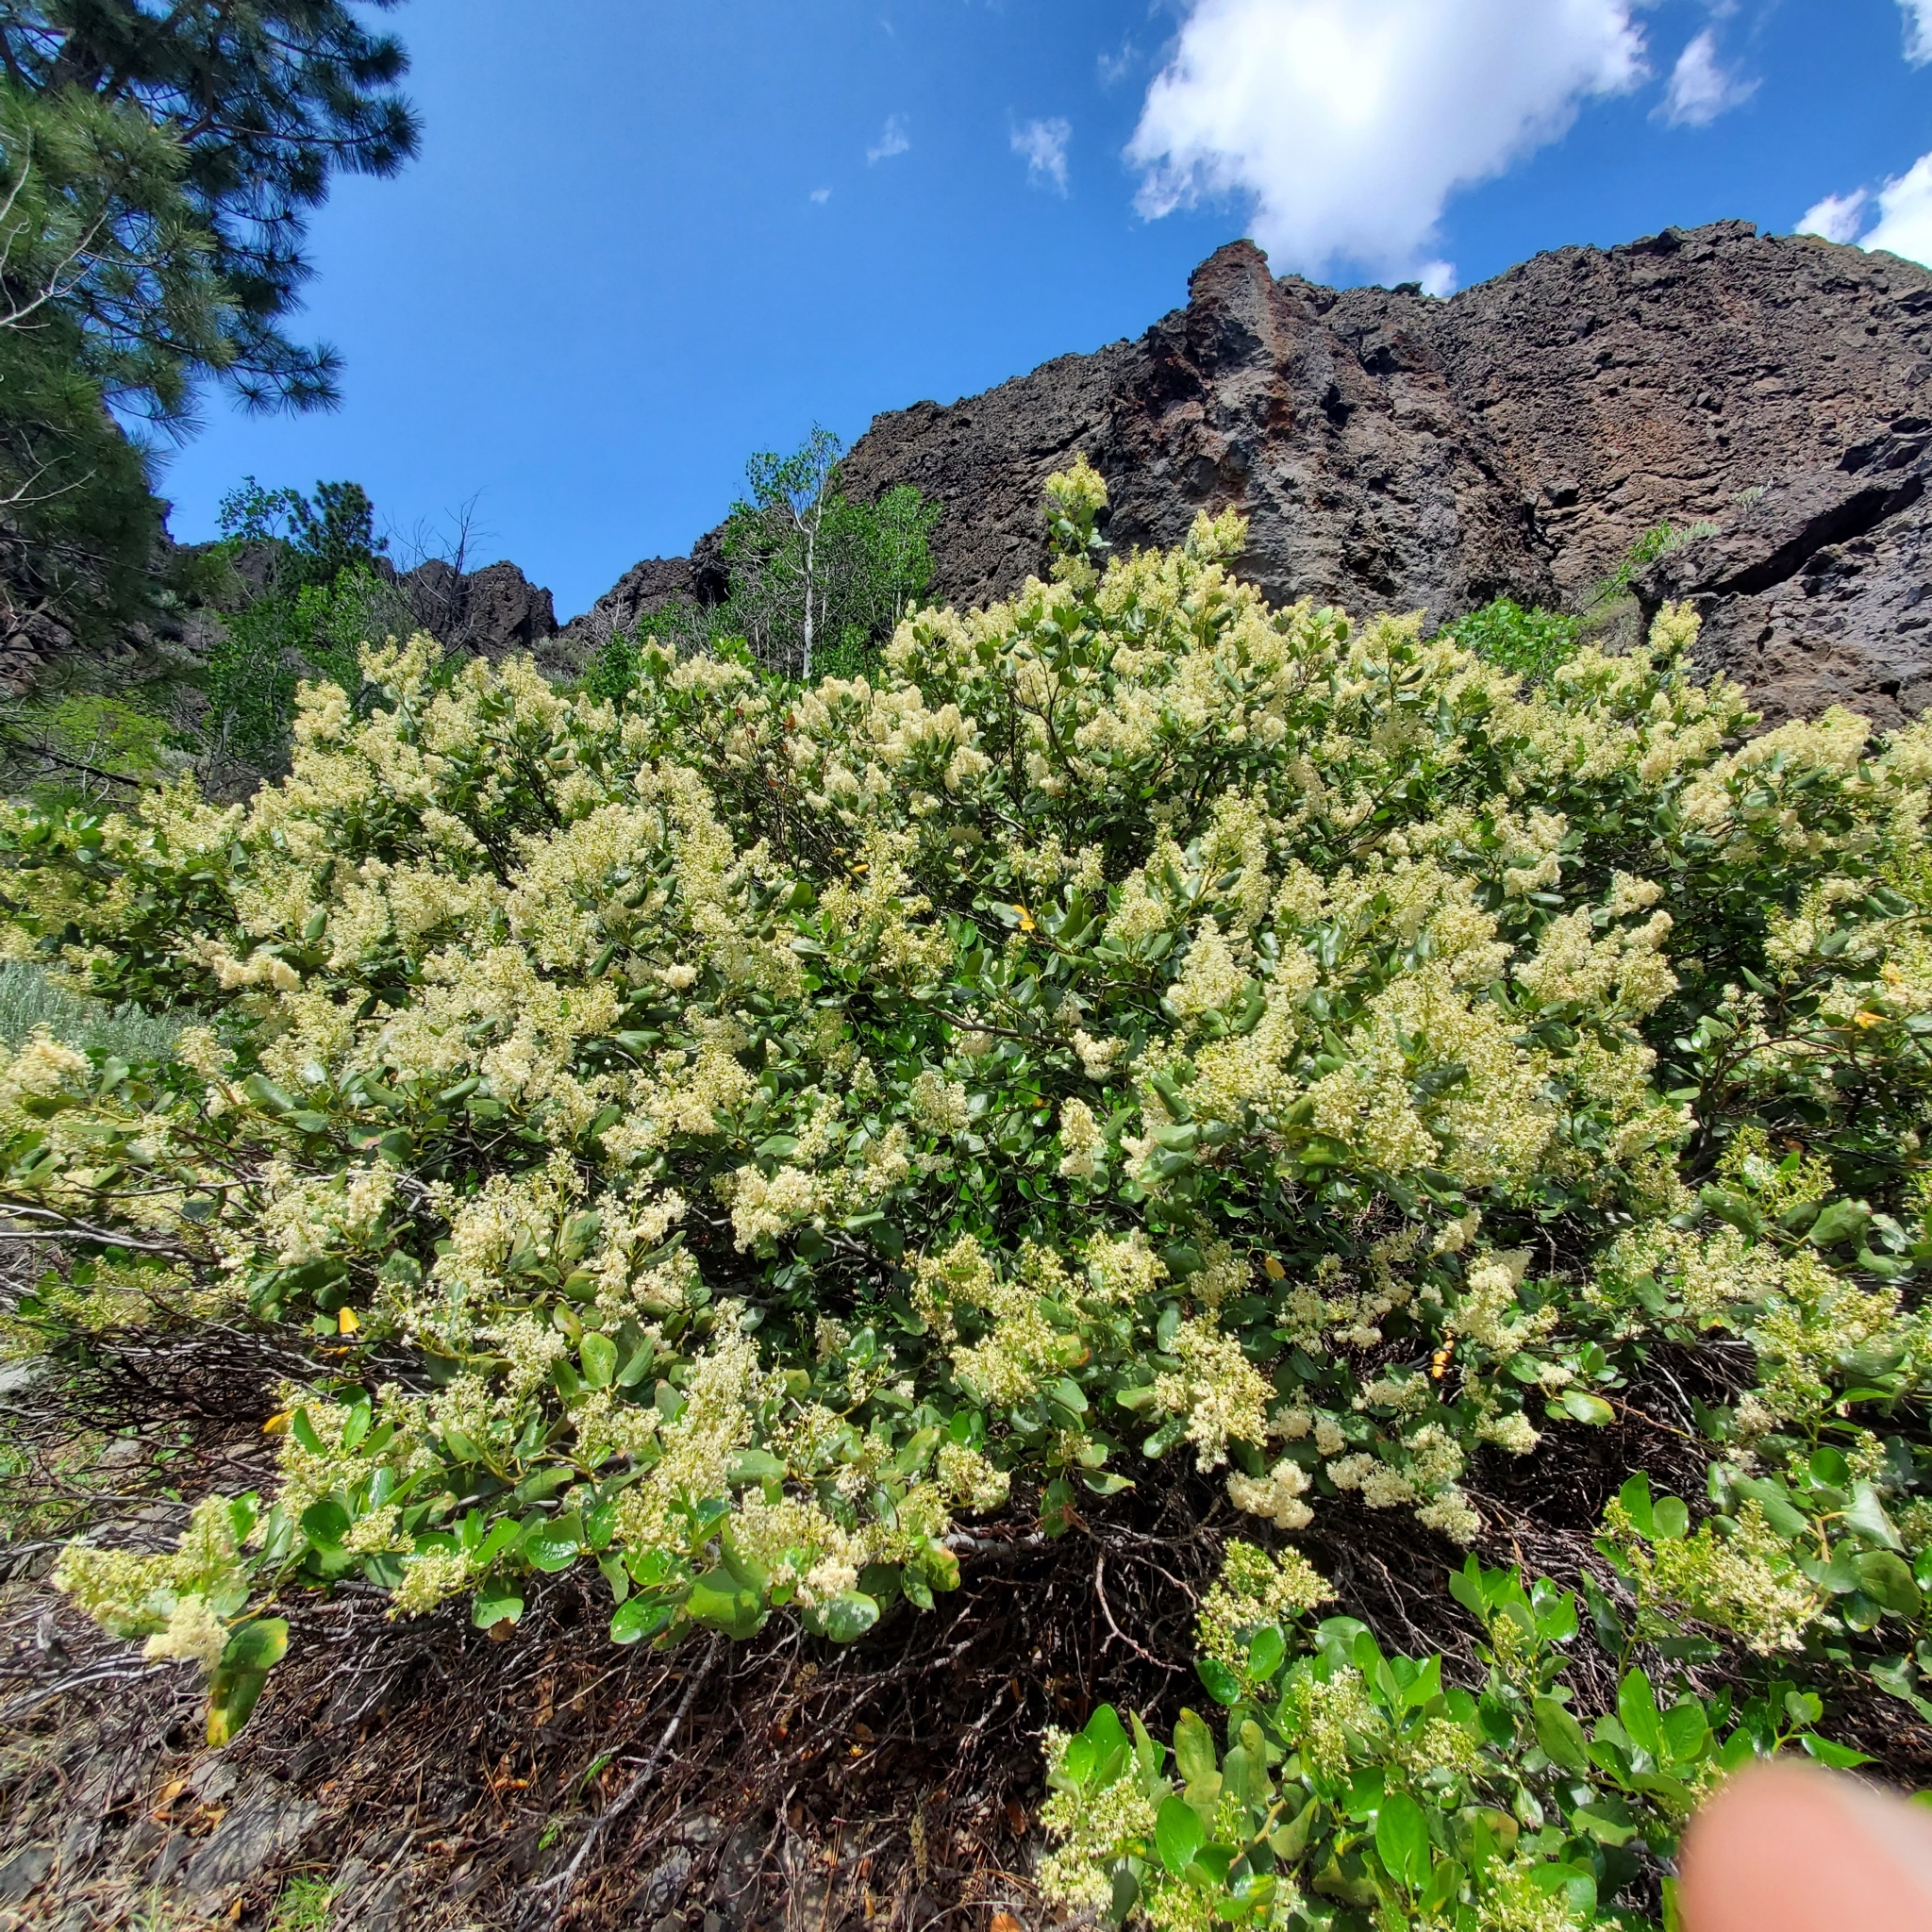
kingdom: Plantae
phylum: Tracheophyta
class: Magnoliopsida
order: Rosales
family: Rhamnaceae
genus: Ceanothus
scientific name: Ceanothus velutinus
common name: Snowbrush
